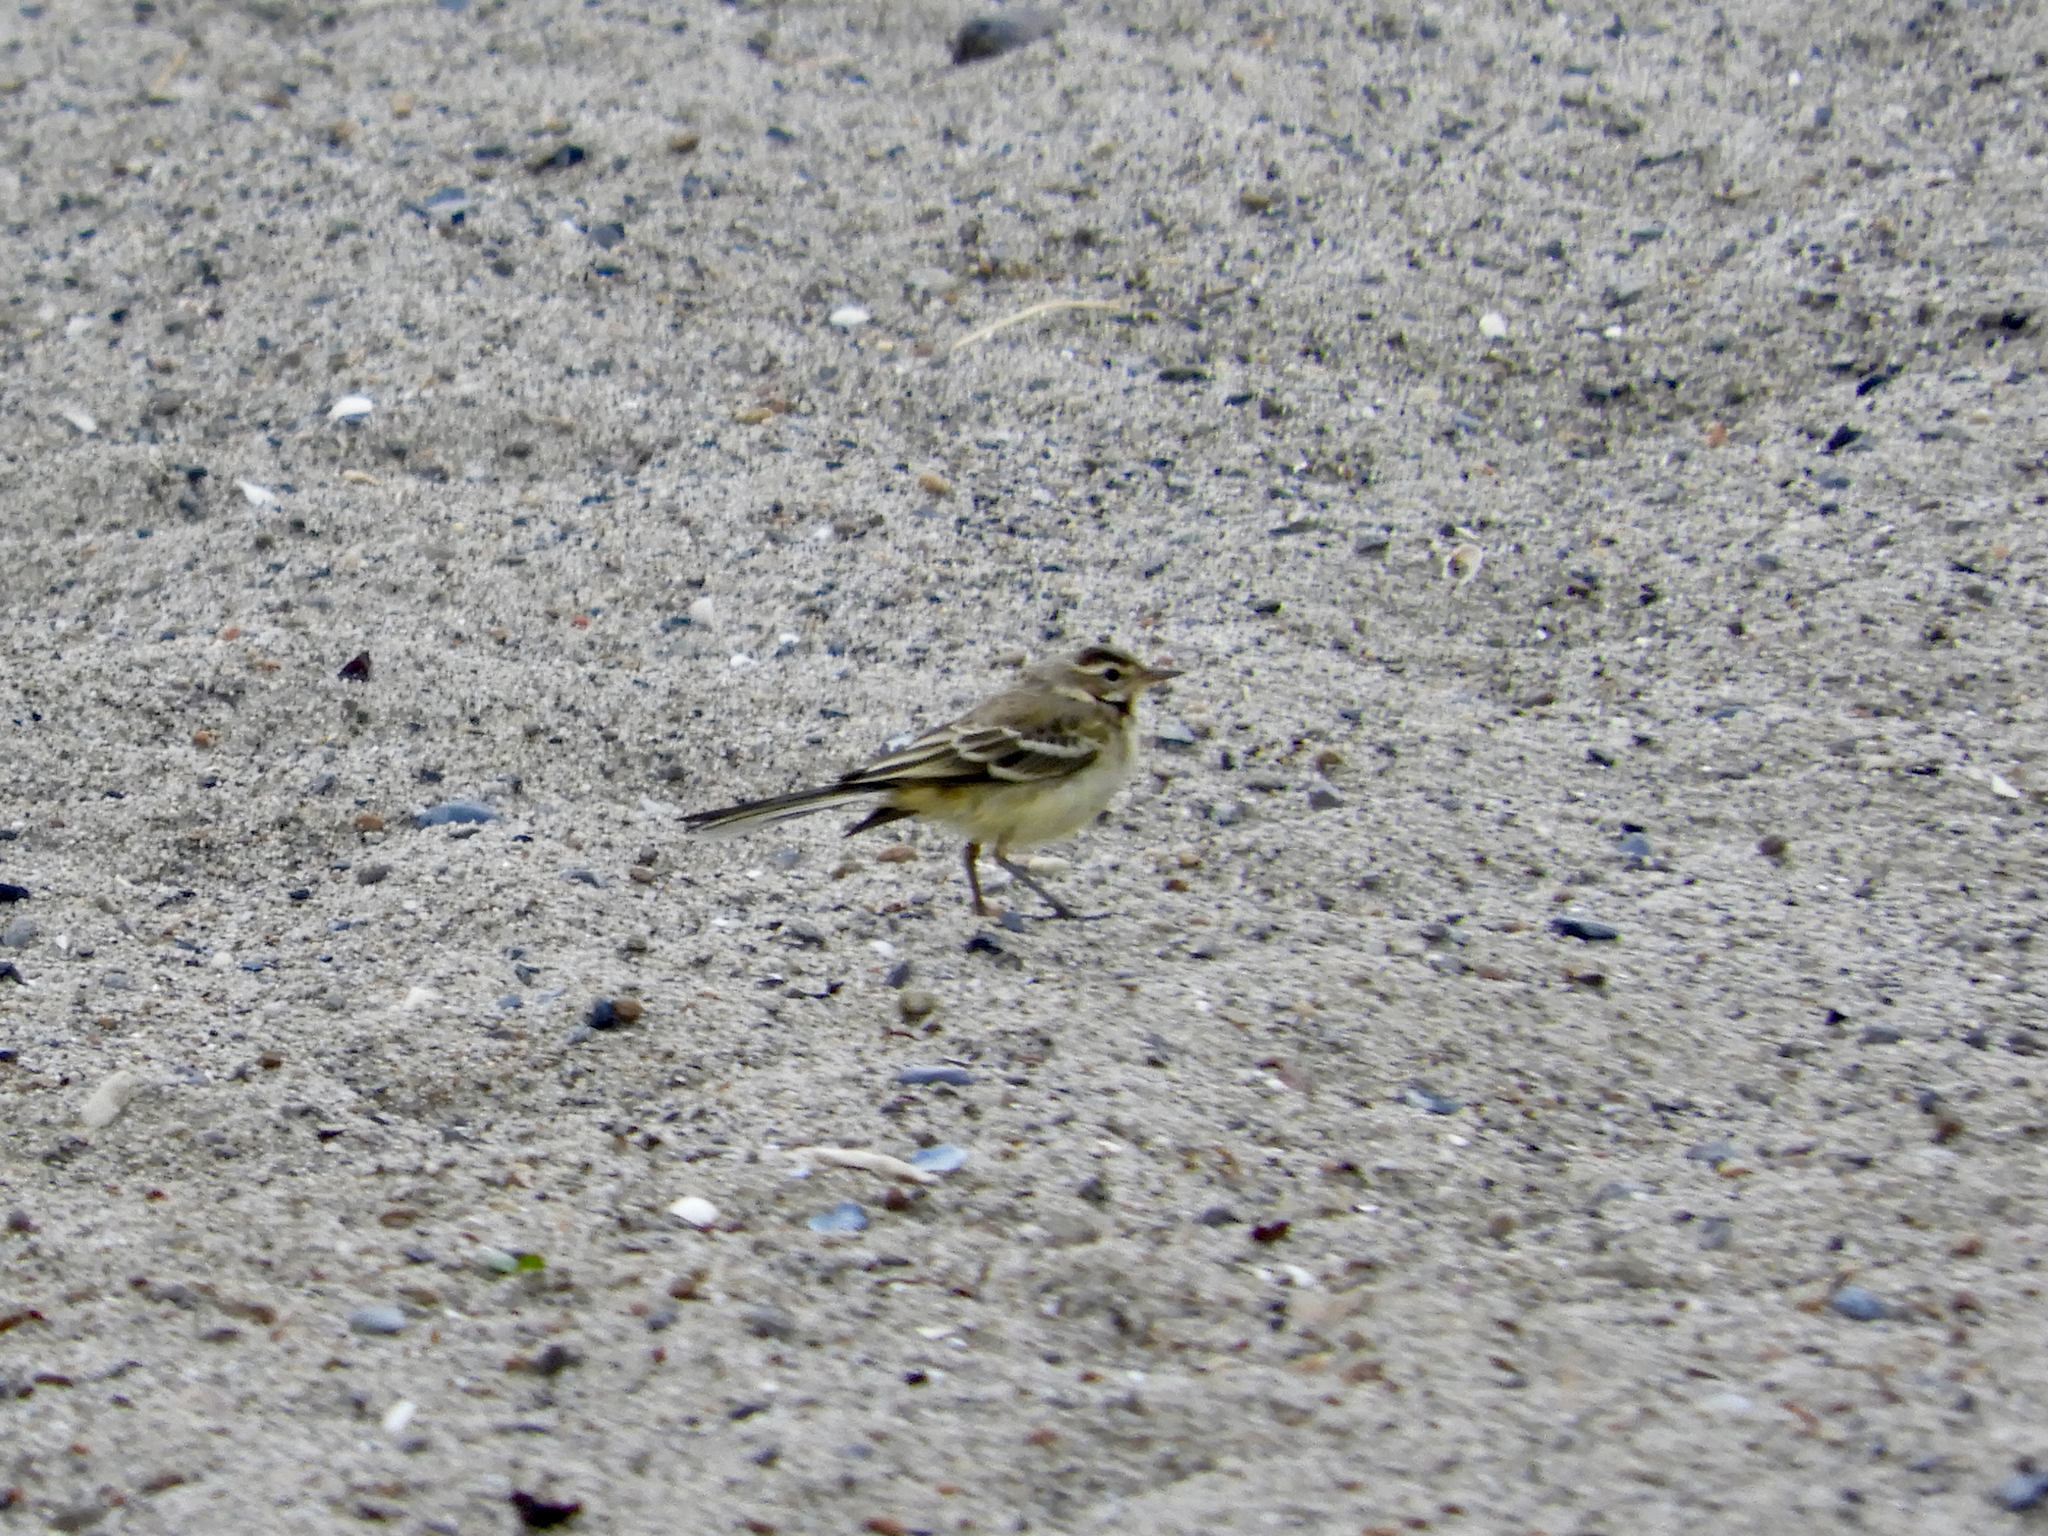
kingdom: Animalia
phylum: Chordata
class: Aves
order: Passeriformes
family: Motacillidae
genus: Motacilla
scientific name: Motacilla flava
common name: Western yellow wagtail
